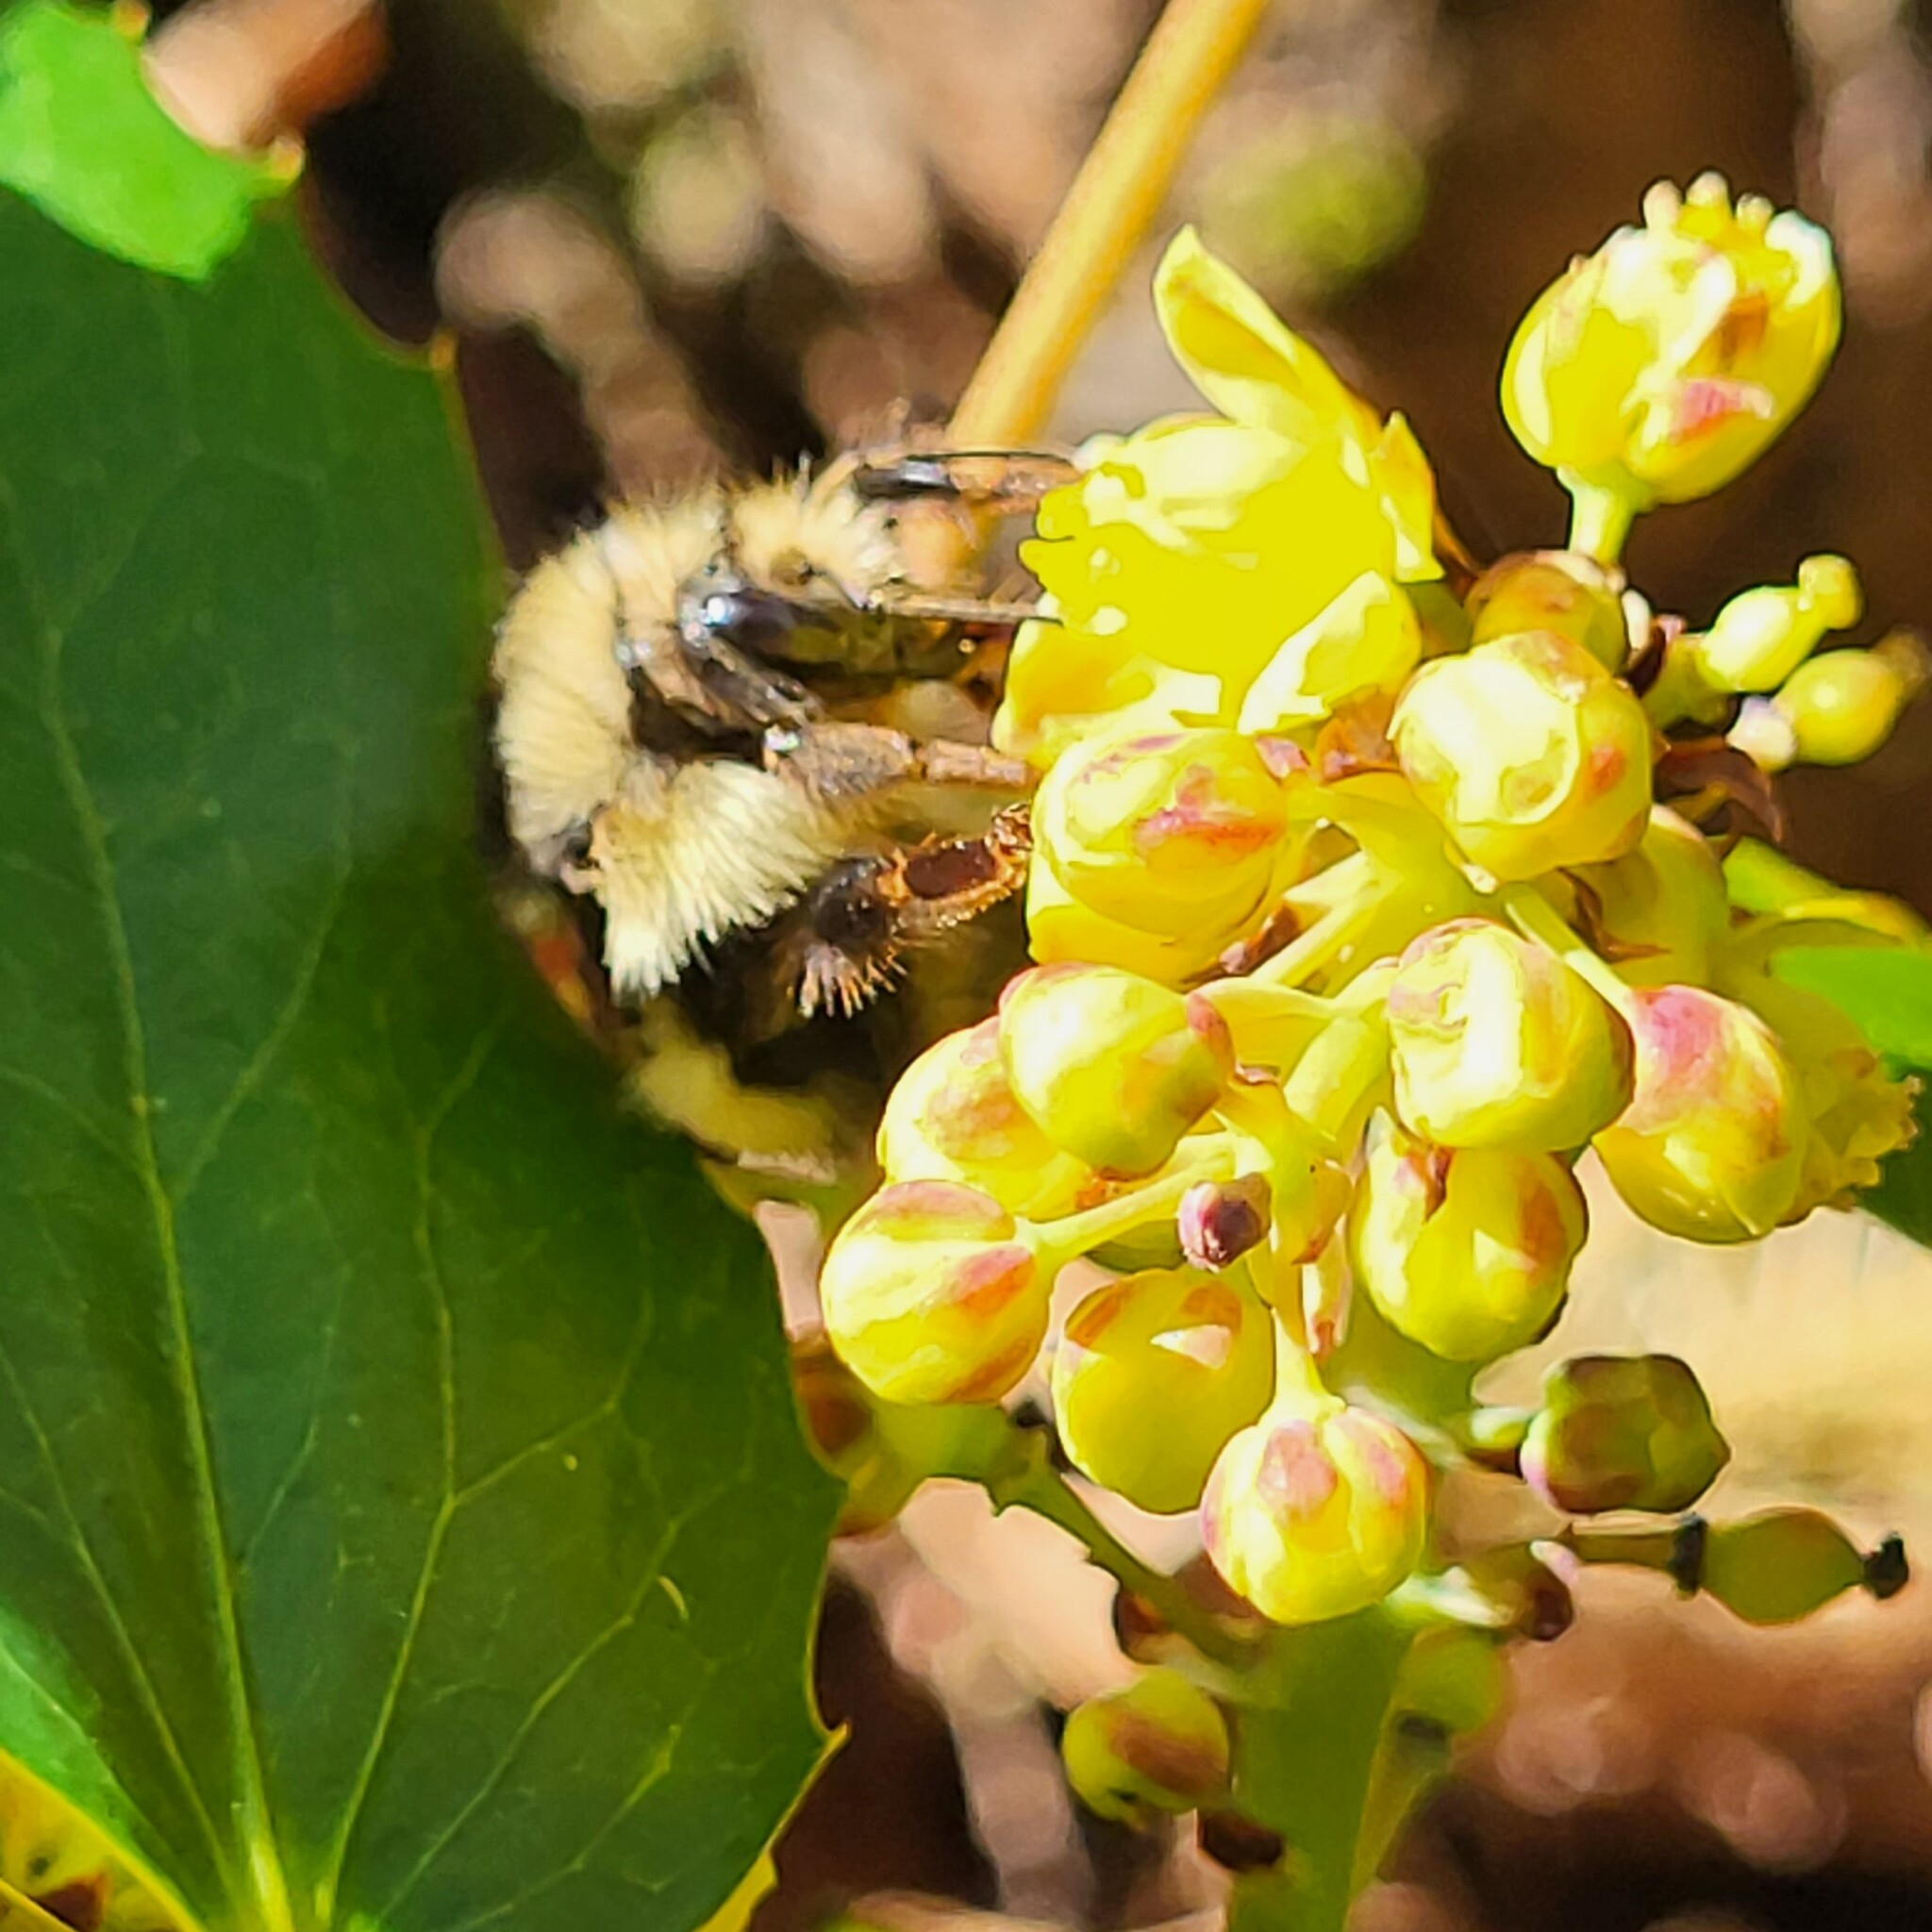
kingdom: Animalia
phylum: Arthropoda
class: Insecta
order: Hymenoptera
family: Apidae
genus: Bombus
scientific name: Bombus flavifrons
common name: Yellow head bumble bee
